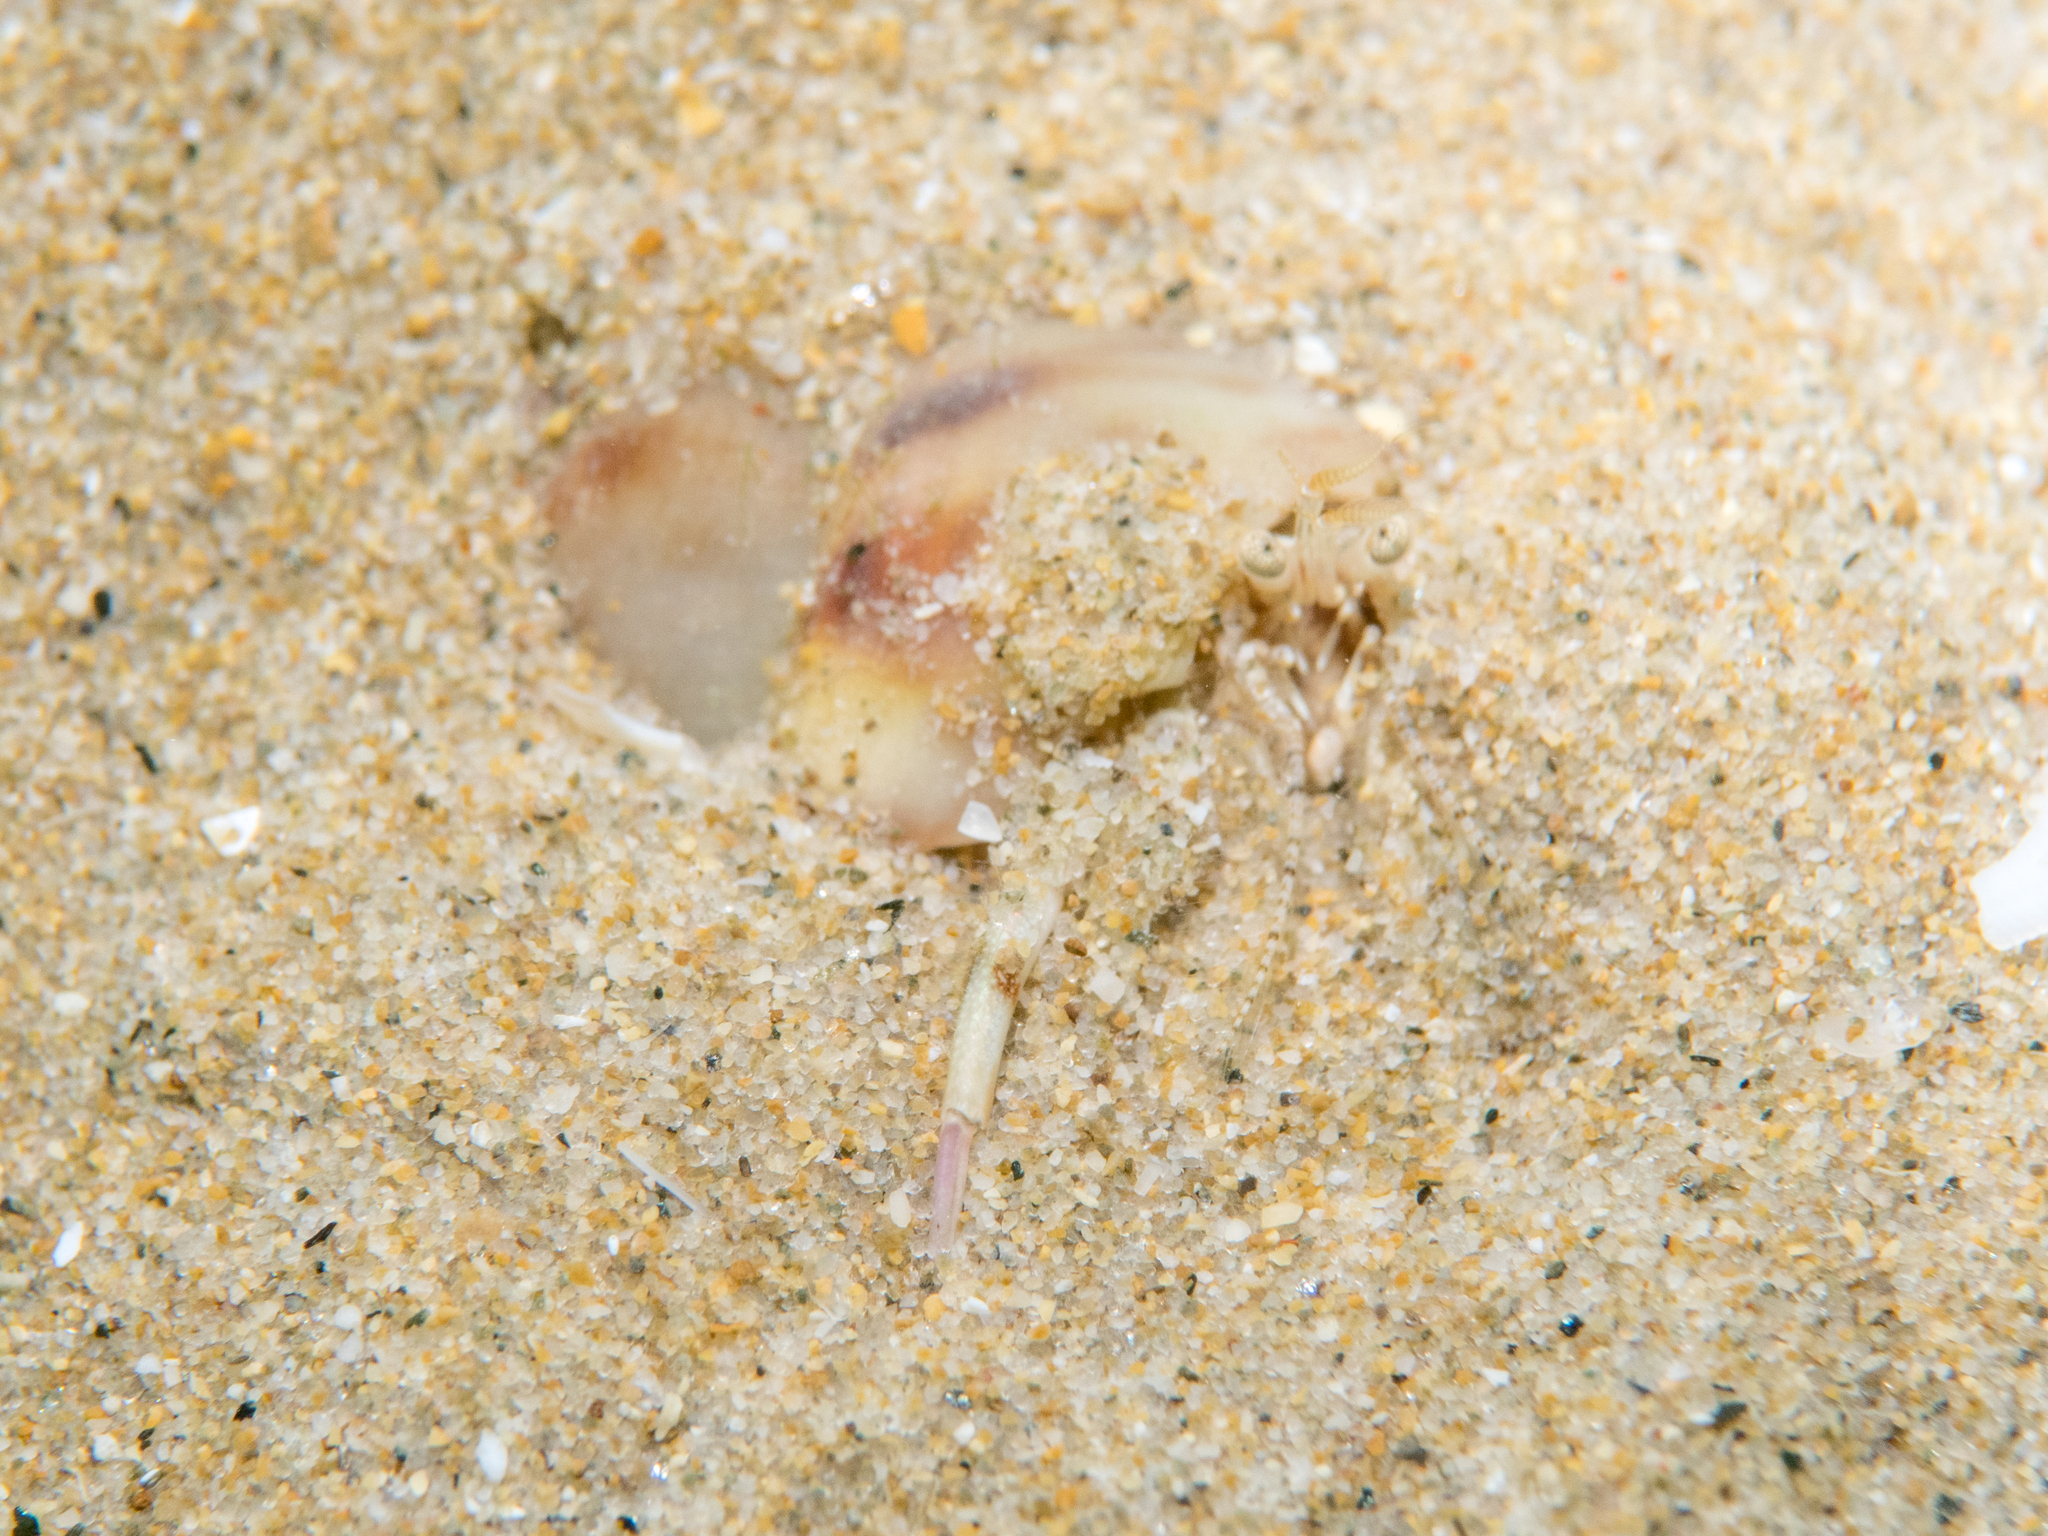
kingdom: Animalia
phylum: Arthropoda
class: Malacostraca
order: Decapoda
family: Diogenidae
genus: Diogenes
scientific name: Diogenes pugilator
